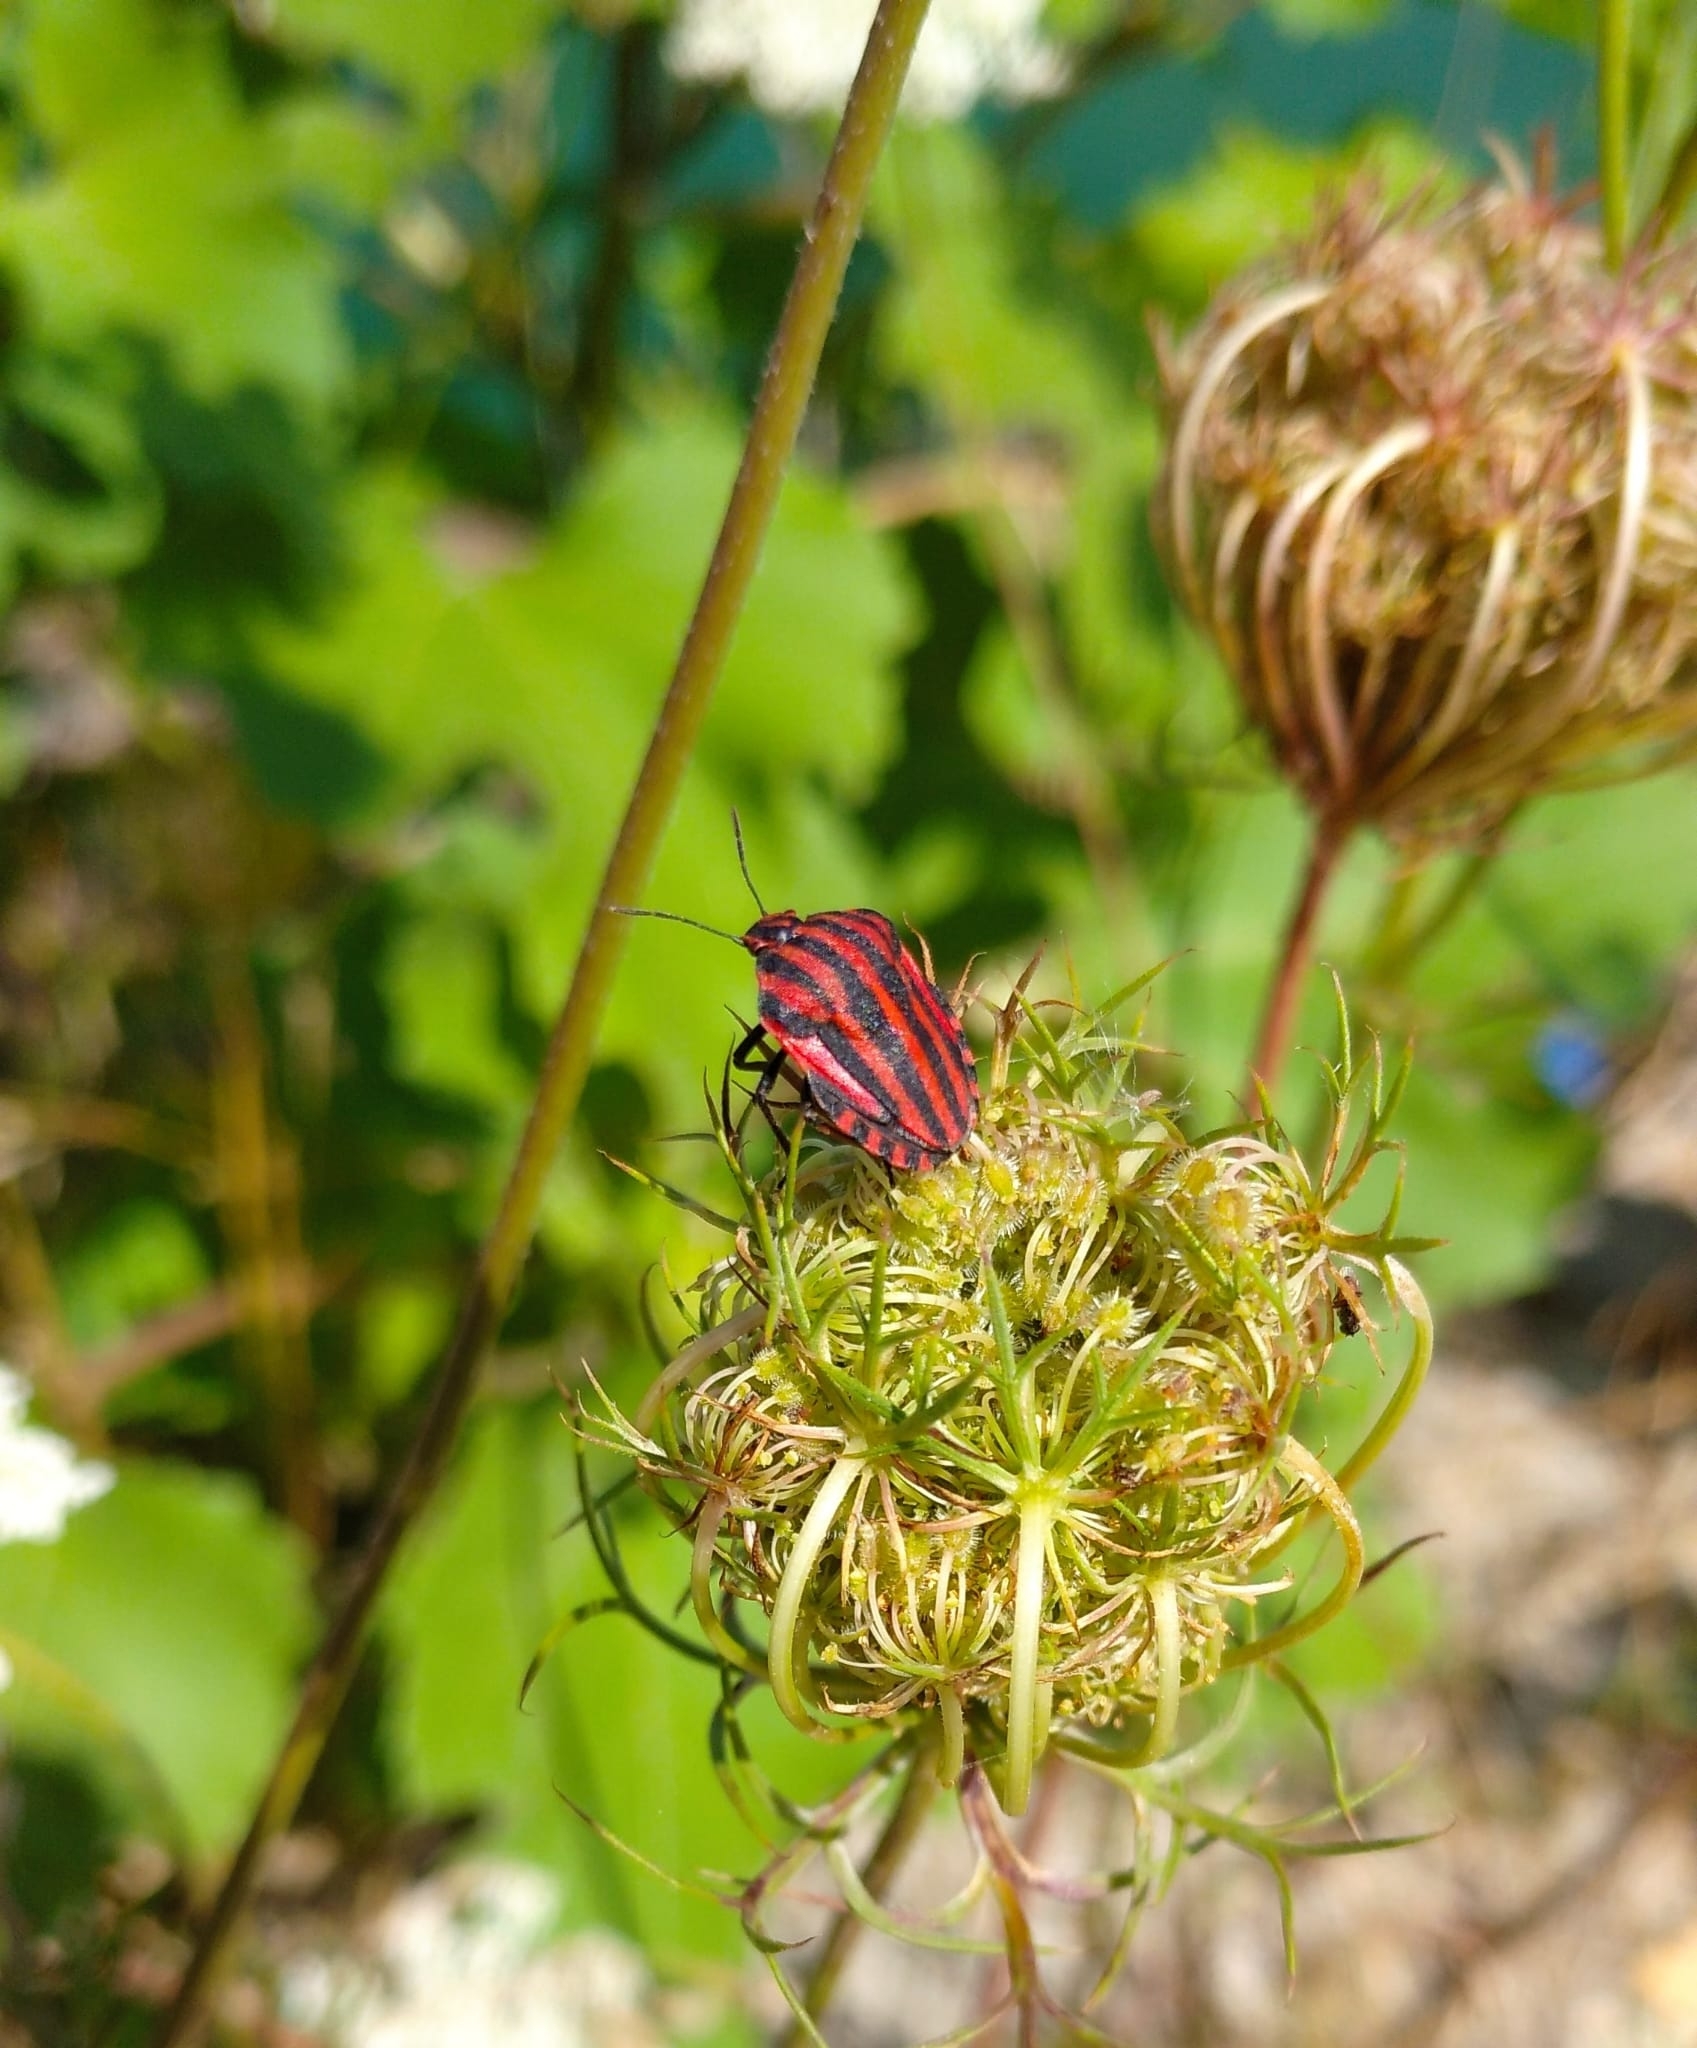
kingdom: Animalia
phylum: Arthropoda
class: Insecta
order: Hemiptera
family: Pentatomidae
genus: Graphosoma
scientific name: Graphosoma italicum
